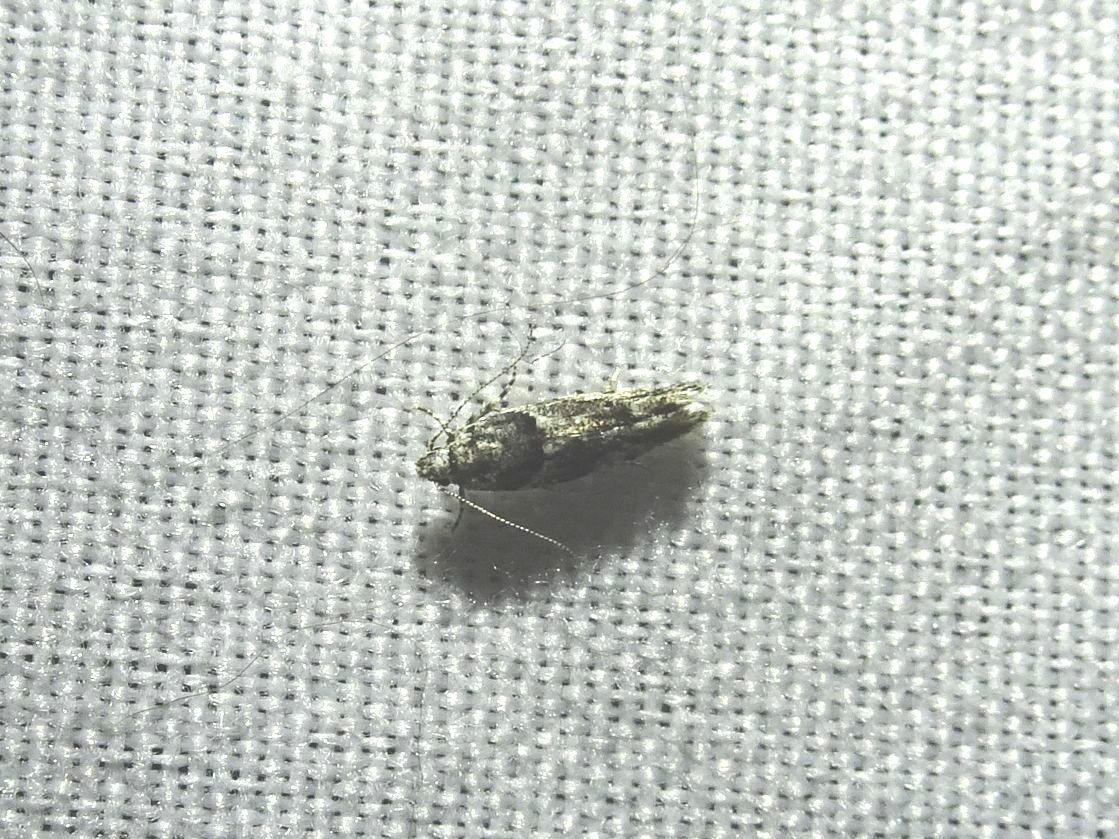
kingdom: Animalia
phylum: Arthropoda
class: Insecta
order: Lepidoptera
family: Gelechiidae
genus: Recurvaria
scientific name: Recurvaria nanella
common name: Gelechiid moth
